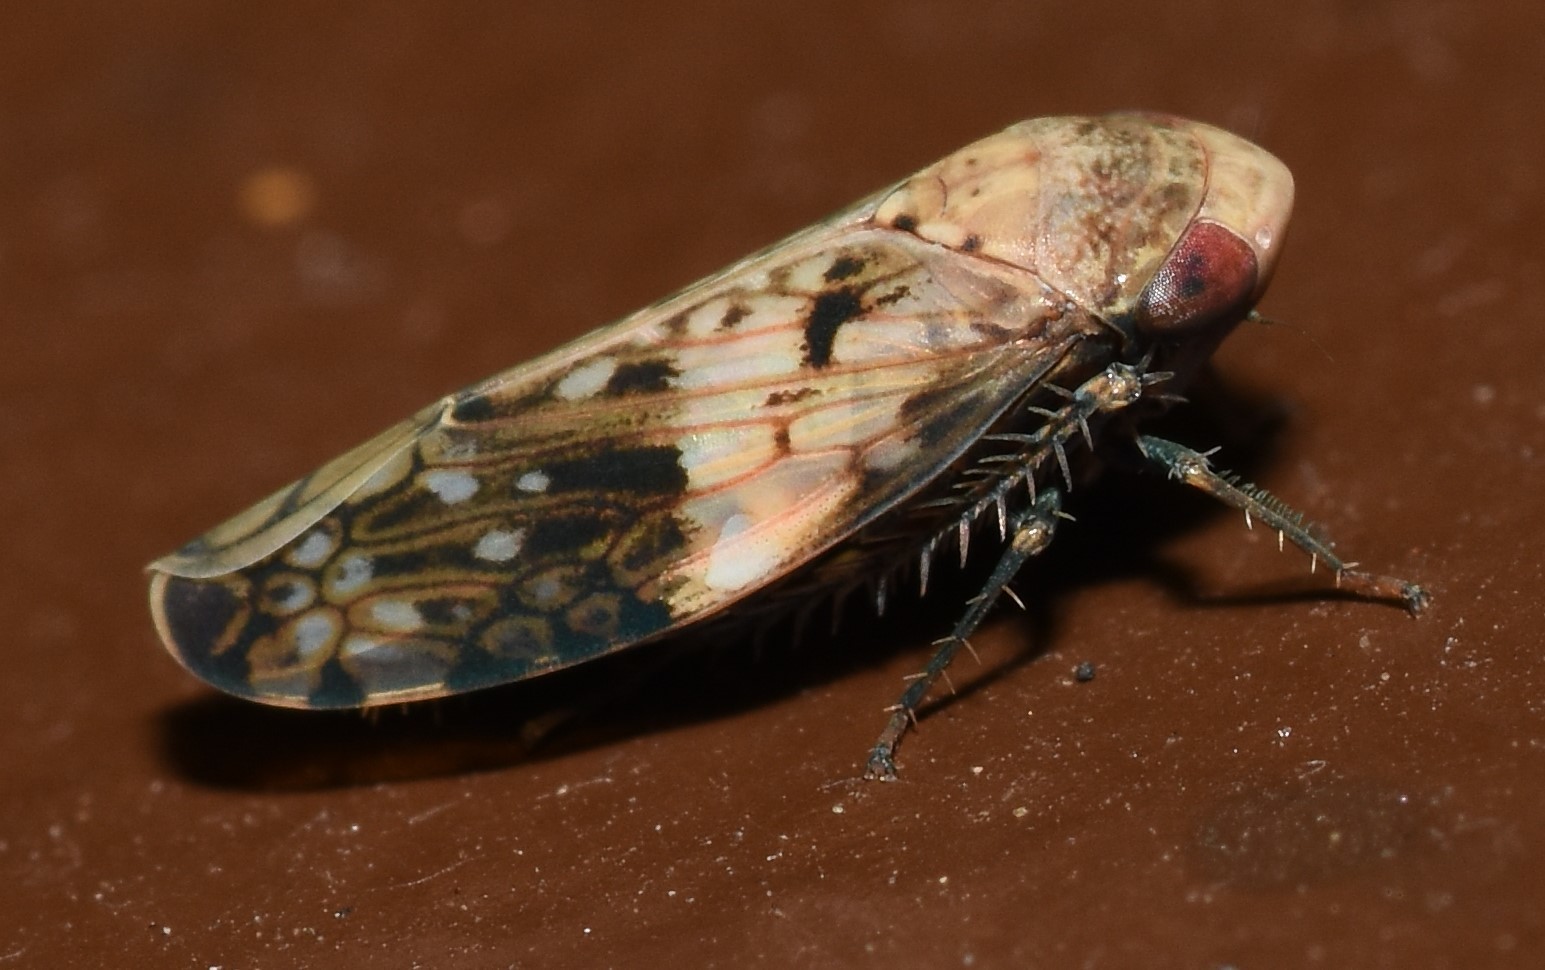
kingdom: Animalia
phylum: Arthropoda
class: Insecta
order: Hemiptera
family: Cicadellidae
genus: Menosoma
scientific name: Menosoma cinctum
